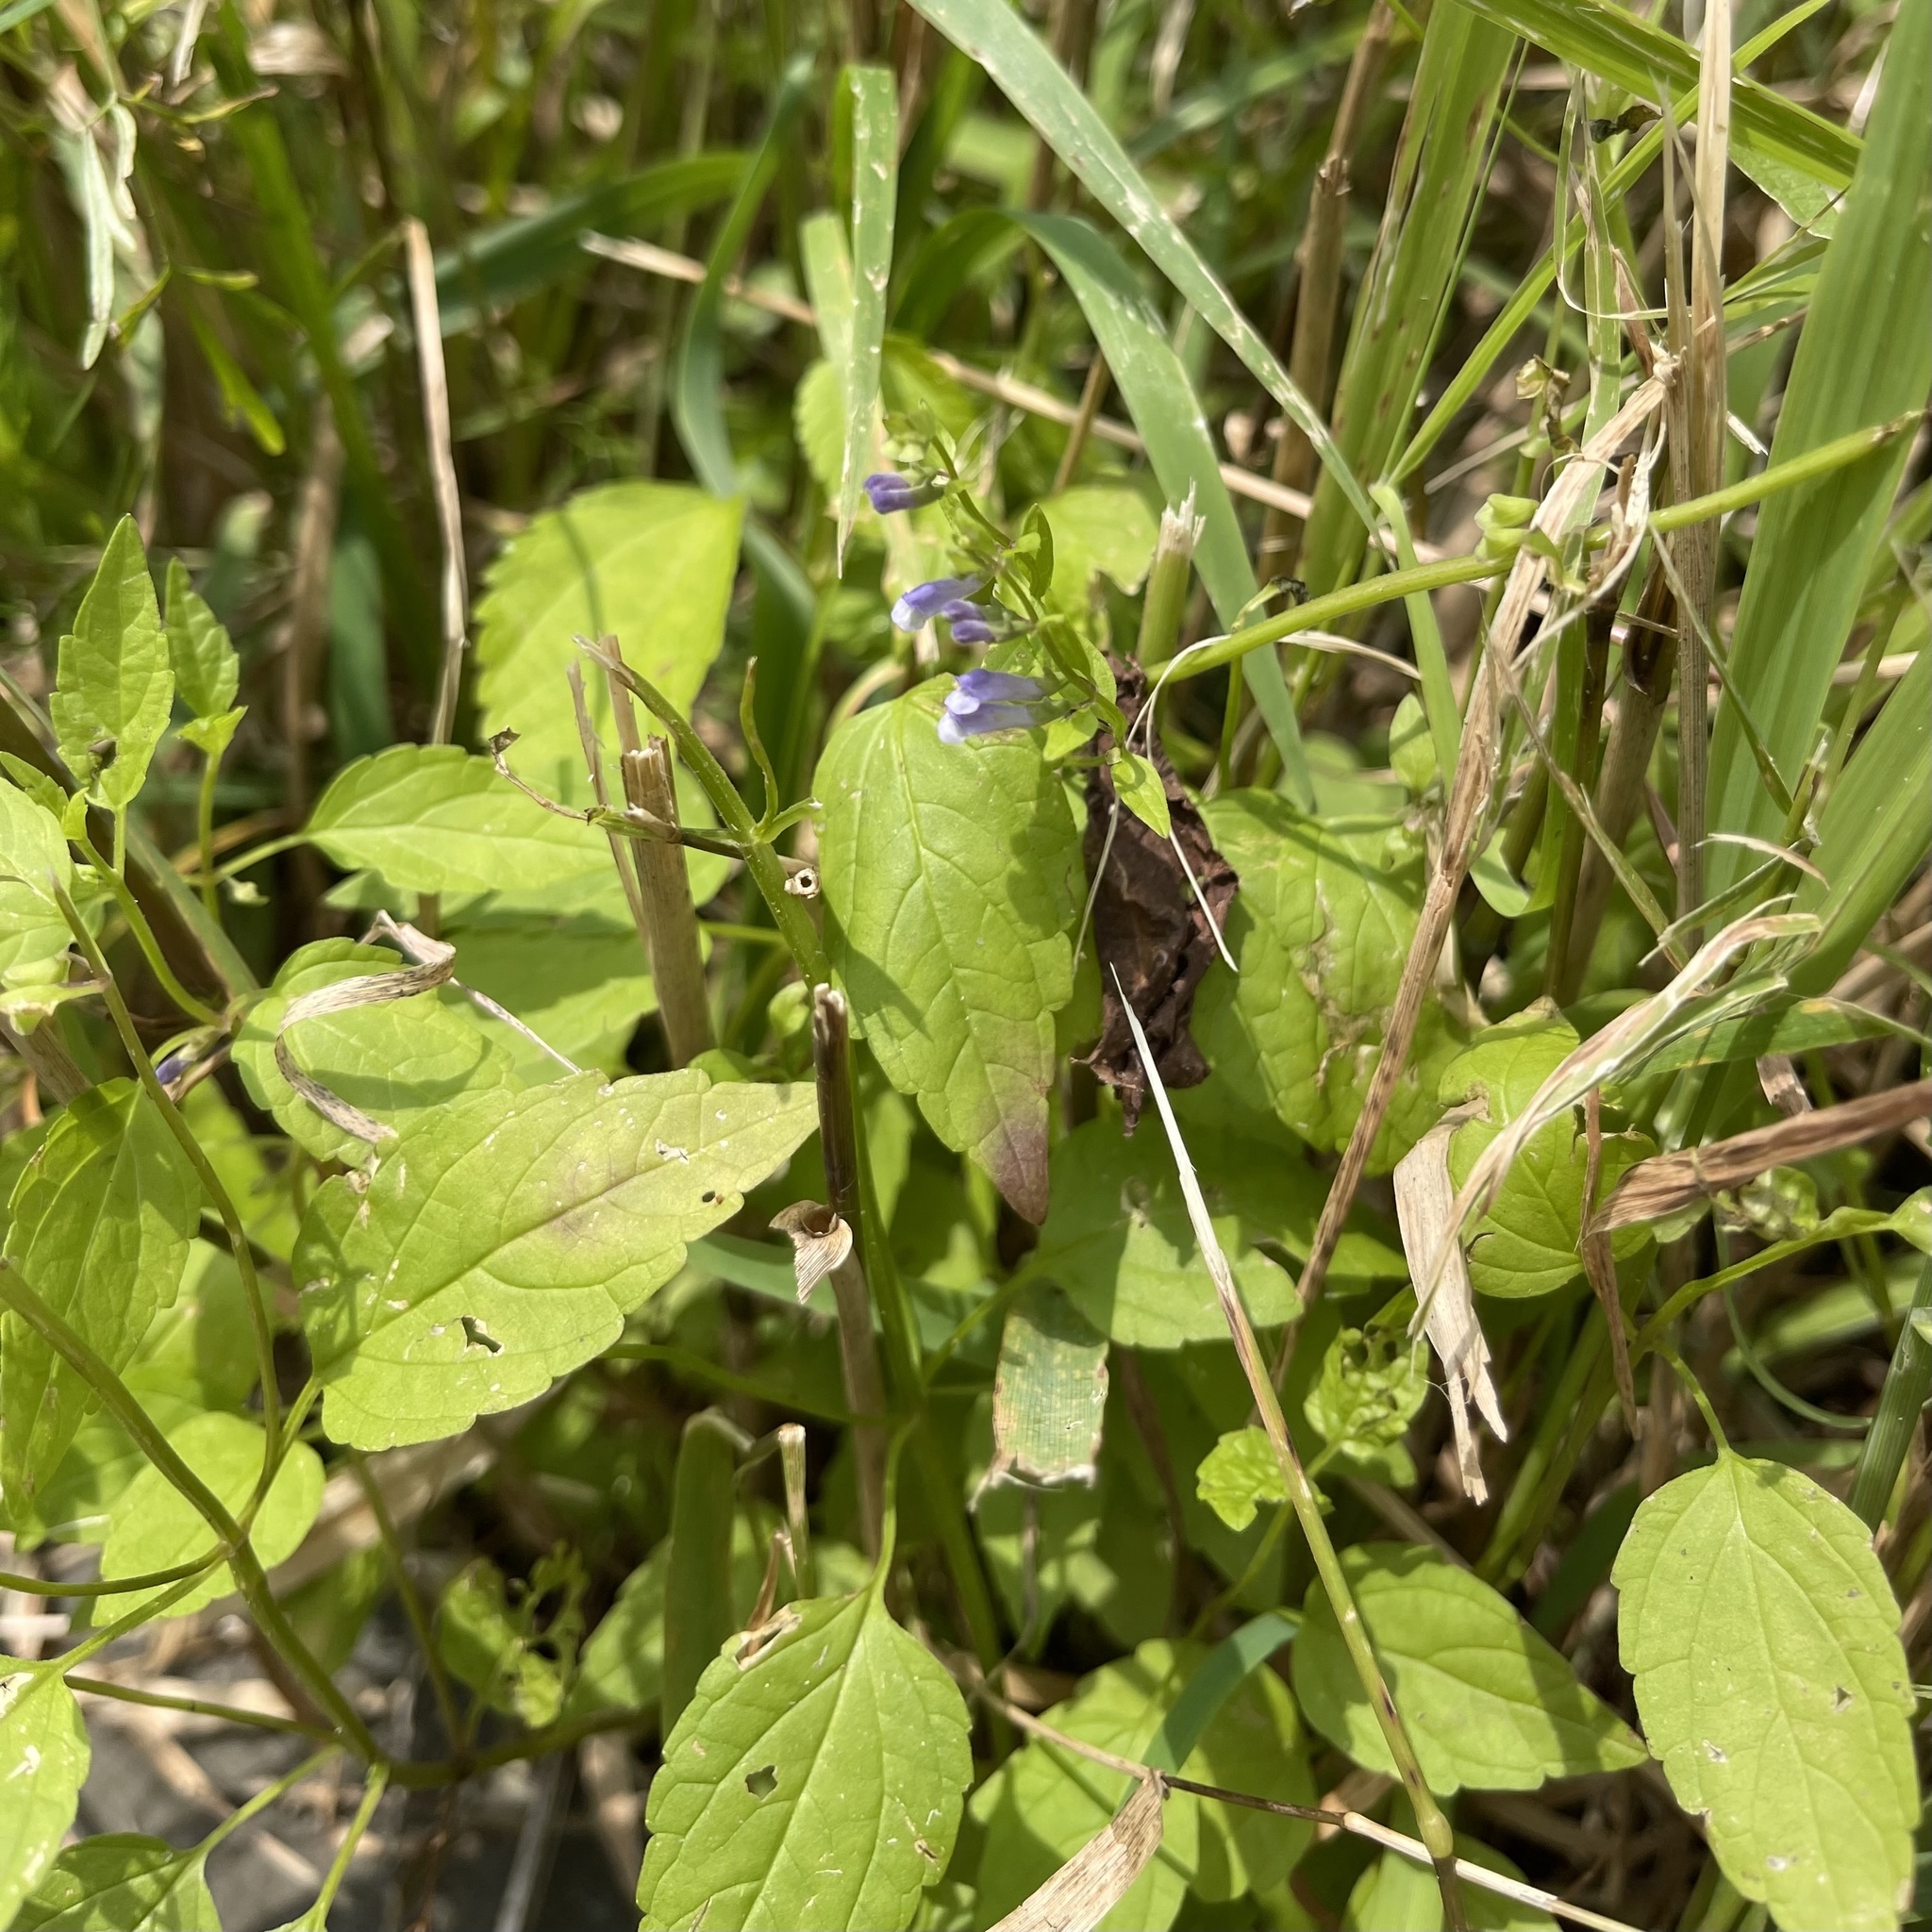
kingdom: Plantae
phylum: Tracheophyta
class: Magnoliopsida
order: Lamiales
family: Lamiaceae
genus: Scutellaria
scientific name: Scutellaria lateriflora
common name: Blue skullcap
